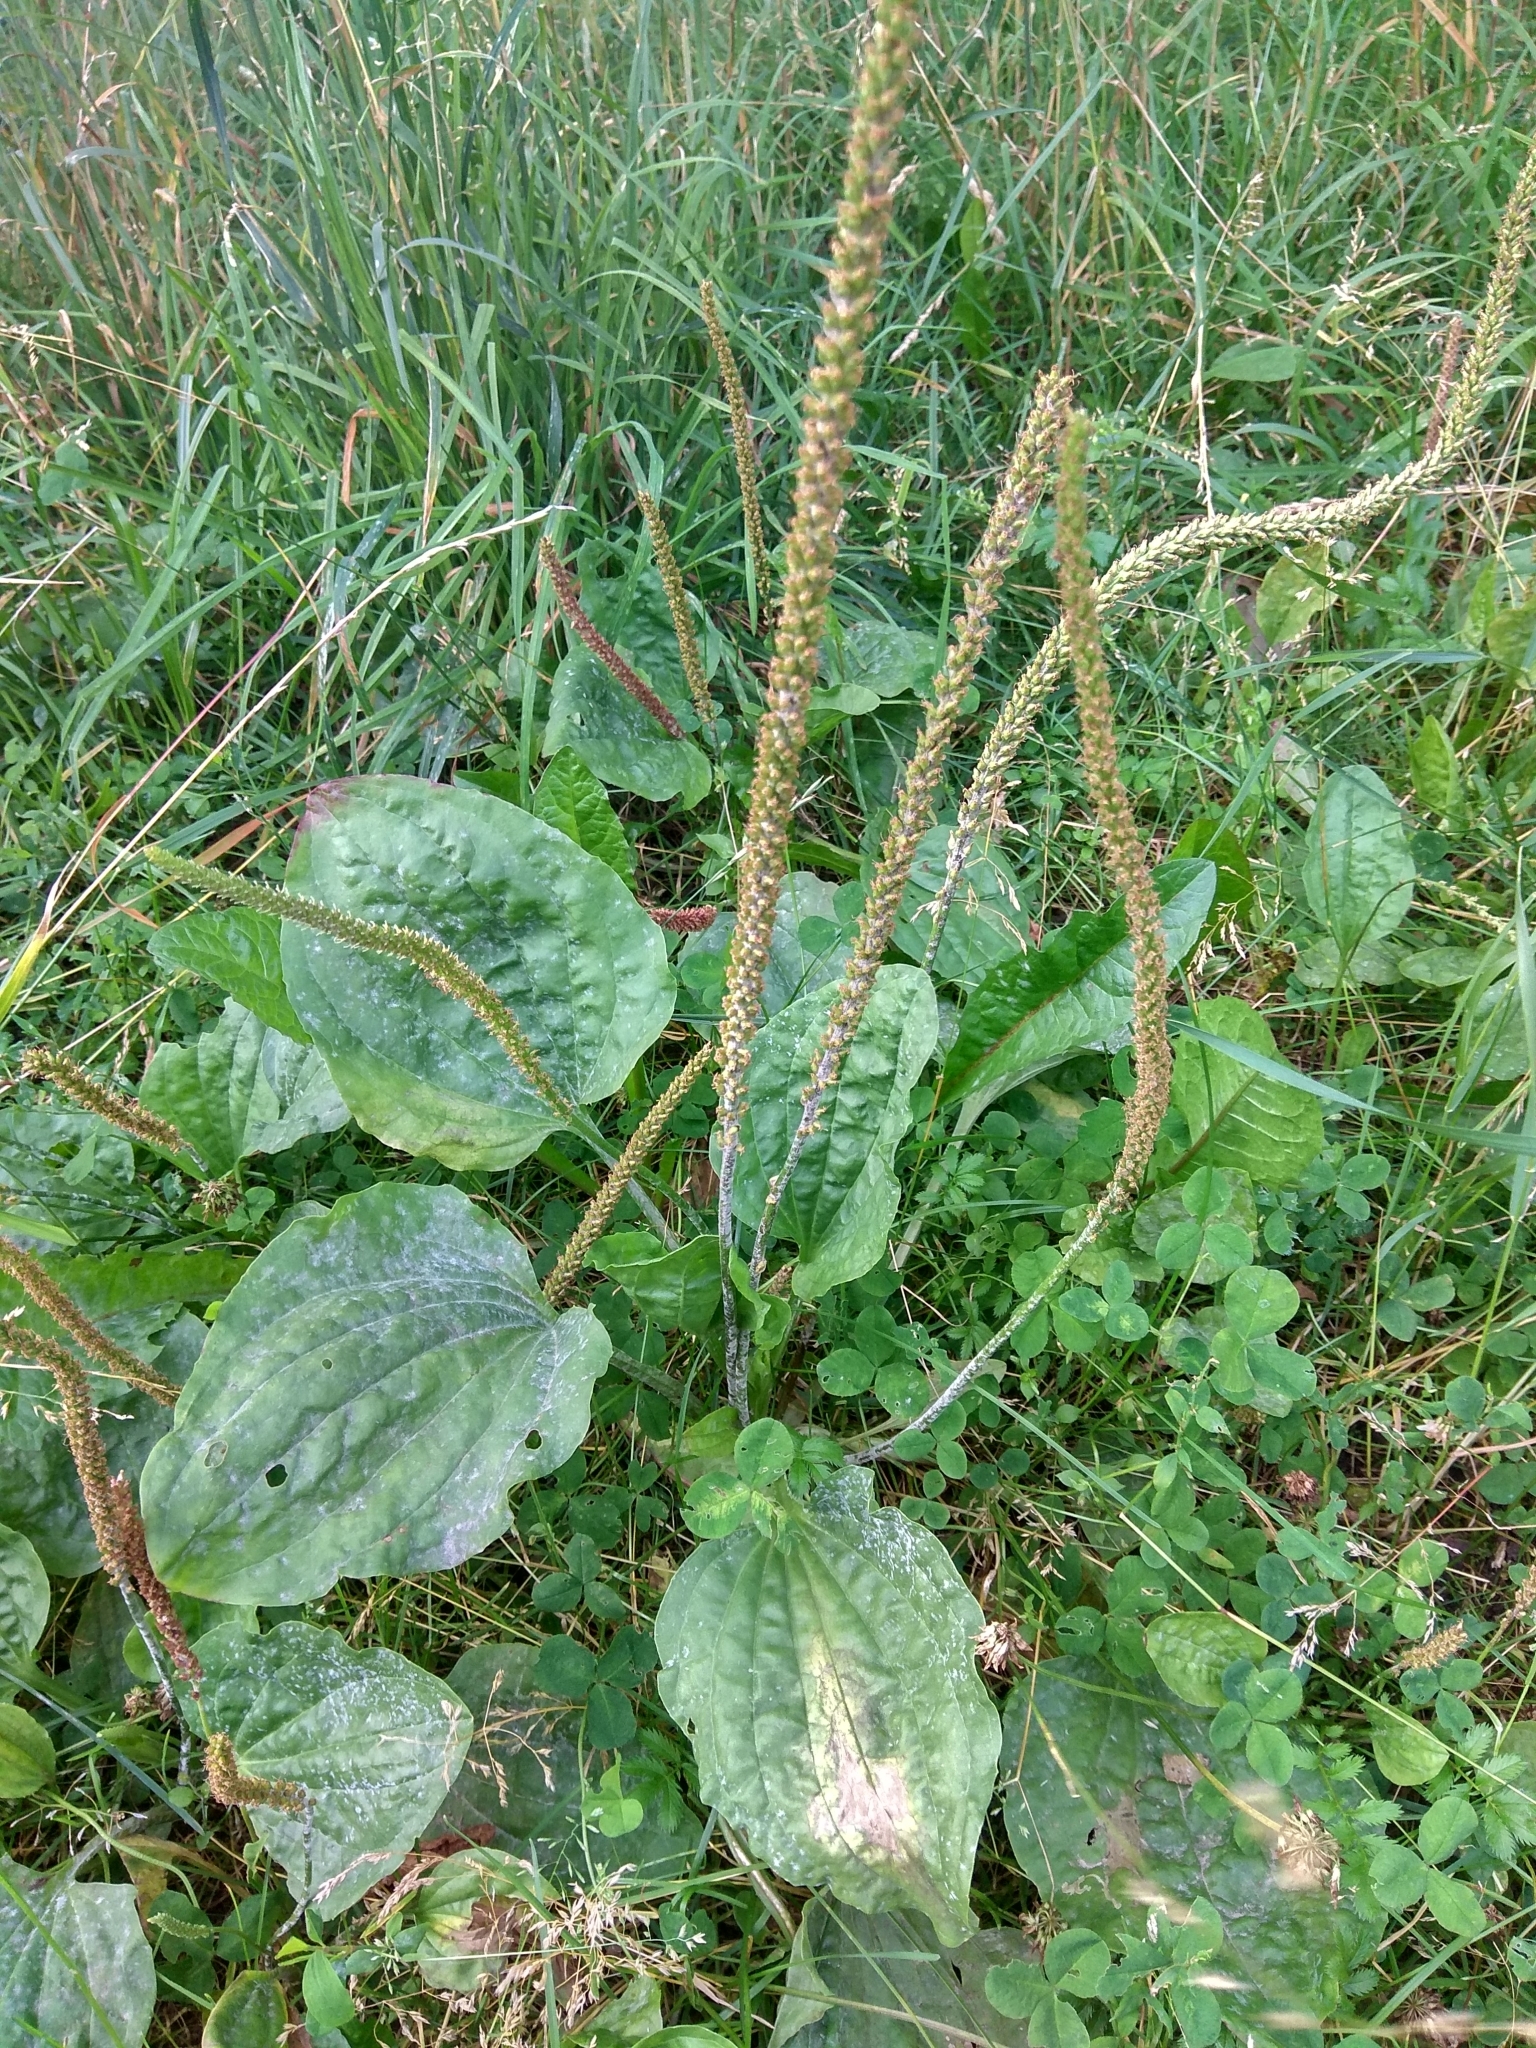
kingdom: Plantae
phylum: Tracheophyta
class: Magnoliopsida
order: Lamiales
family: Plantaginaceae
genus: Plantago
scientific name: Plantago major
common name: Common plantain
